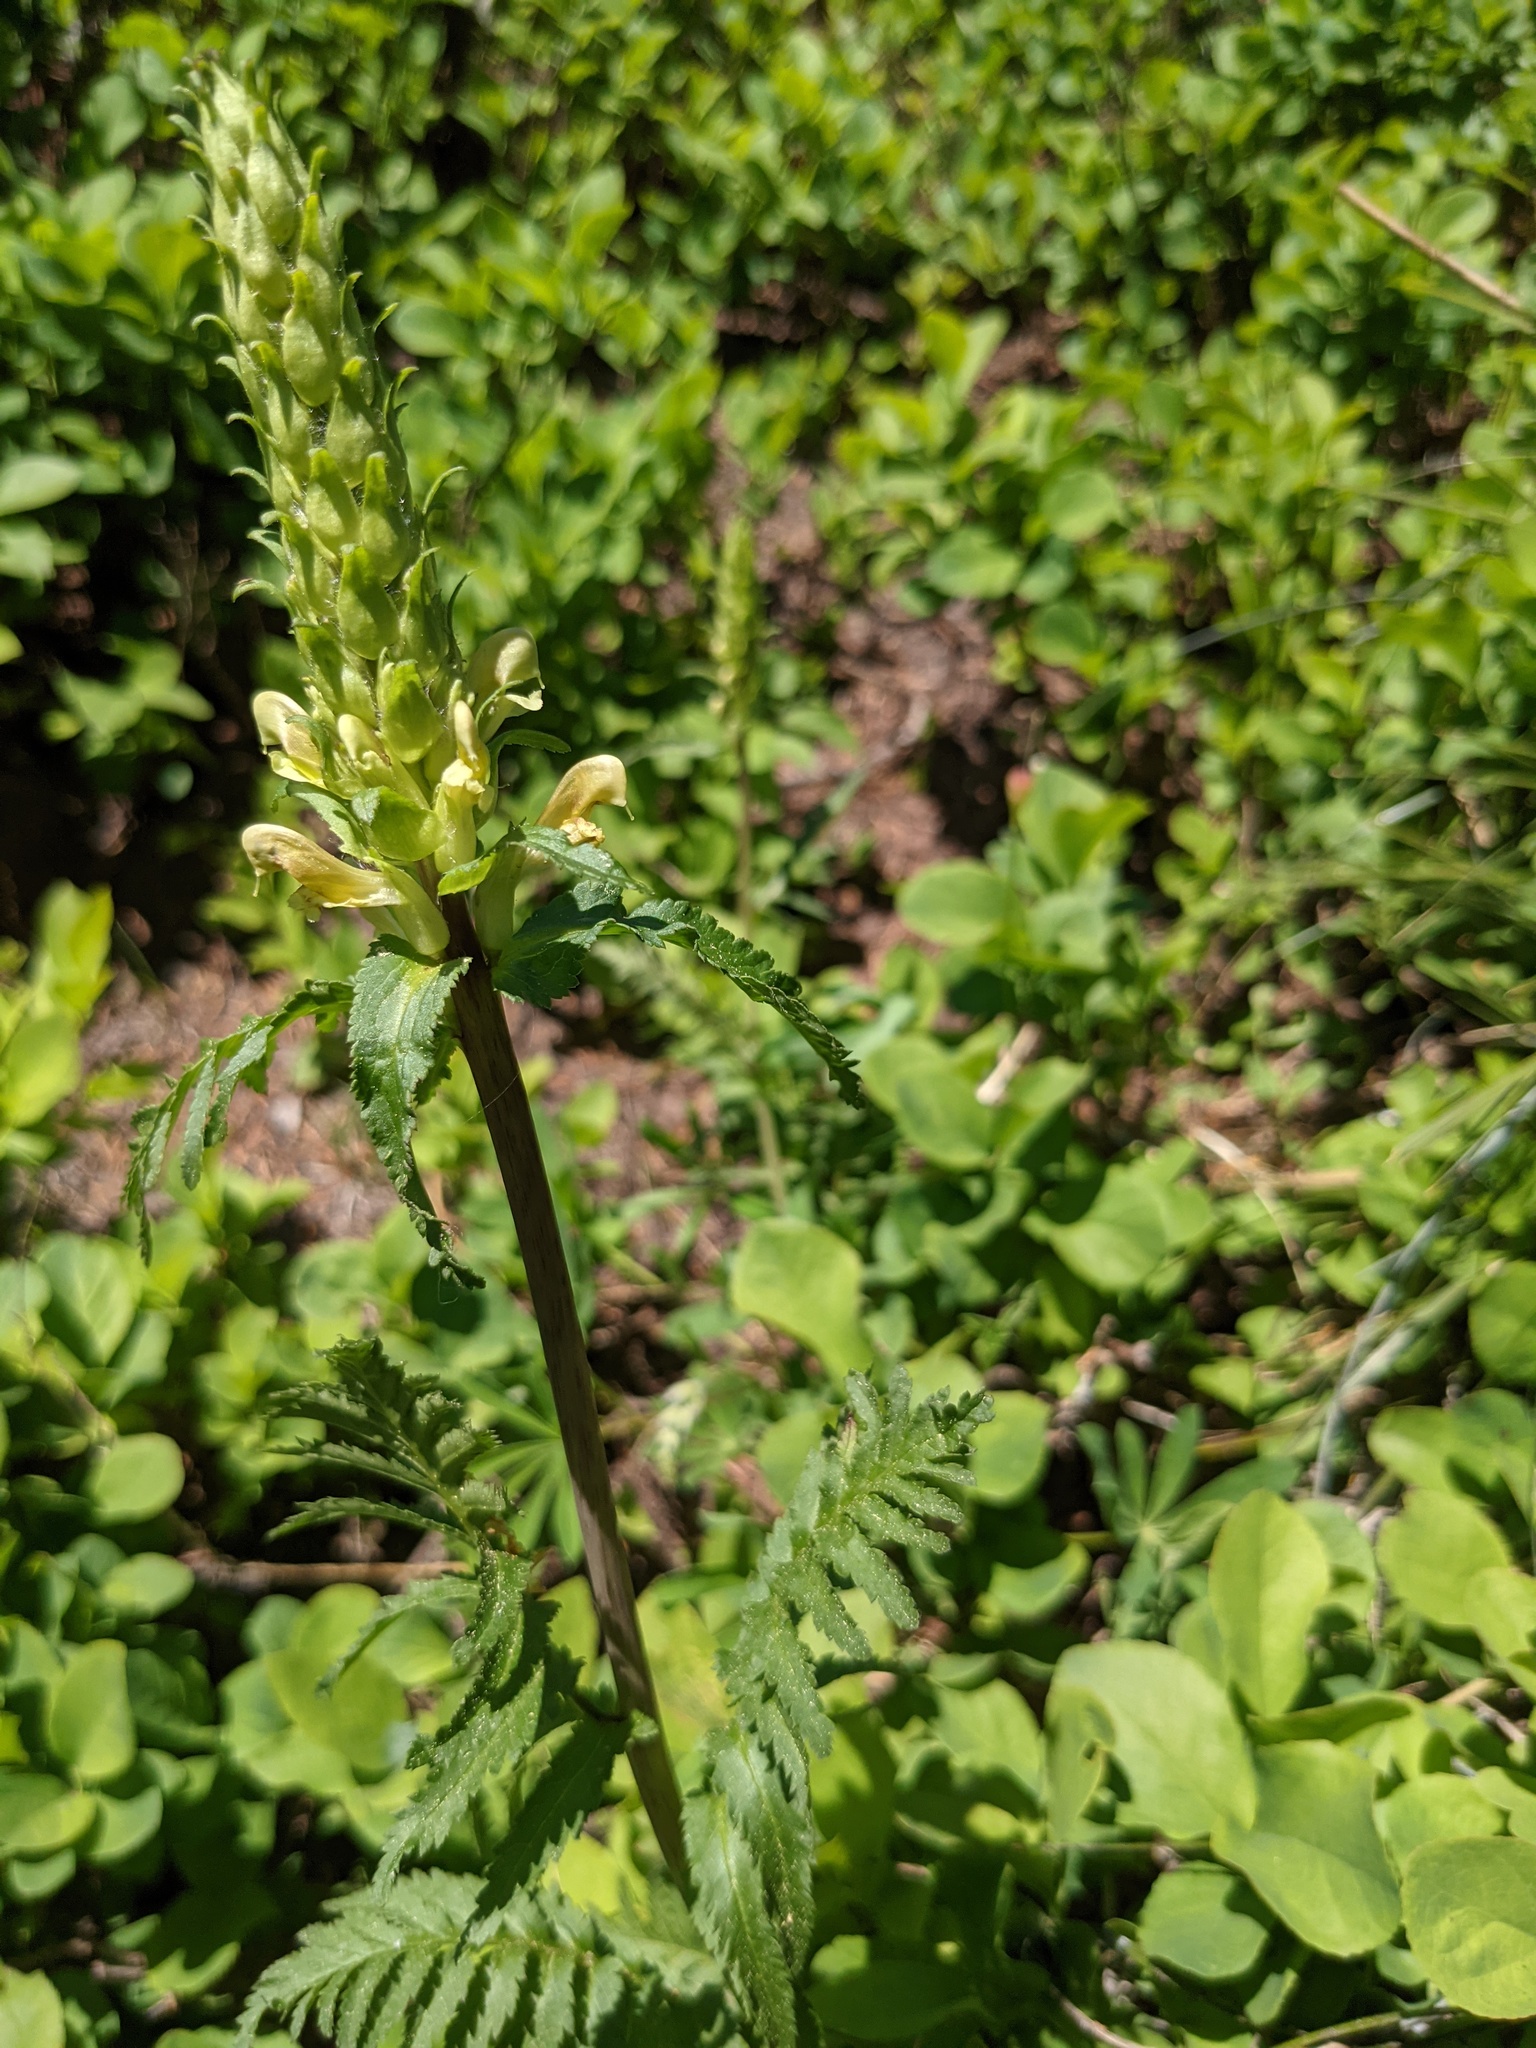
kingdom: Plantae
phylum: Tracheophyta
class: Magnoliopsida
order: Lamiales
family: Orobanchaceae
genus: Pedicularis
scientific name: Pedicularis bracteosa
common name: Bracted lousewort
